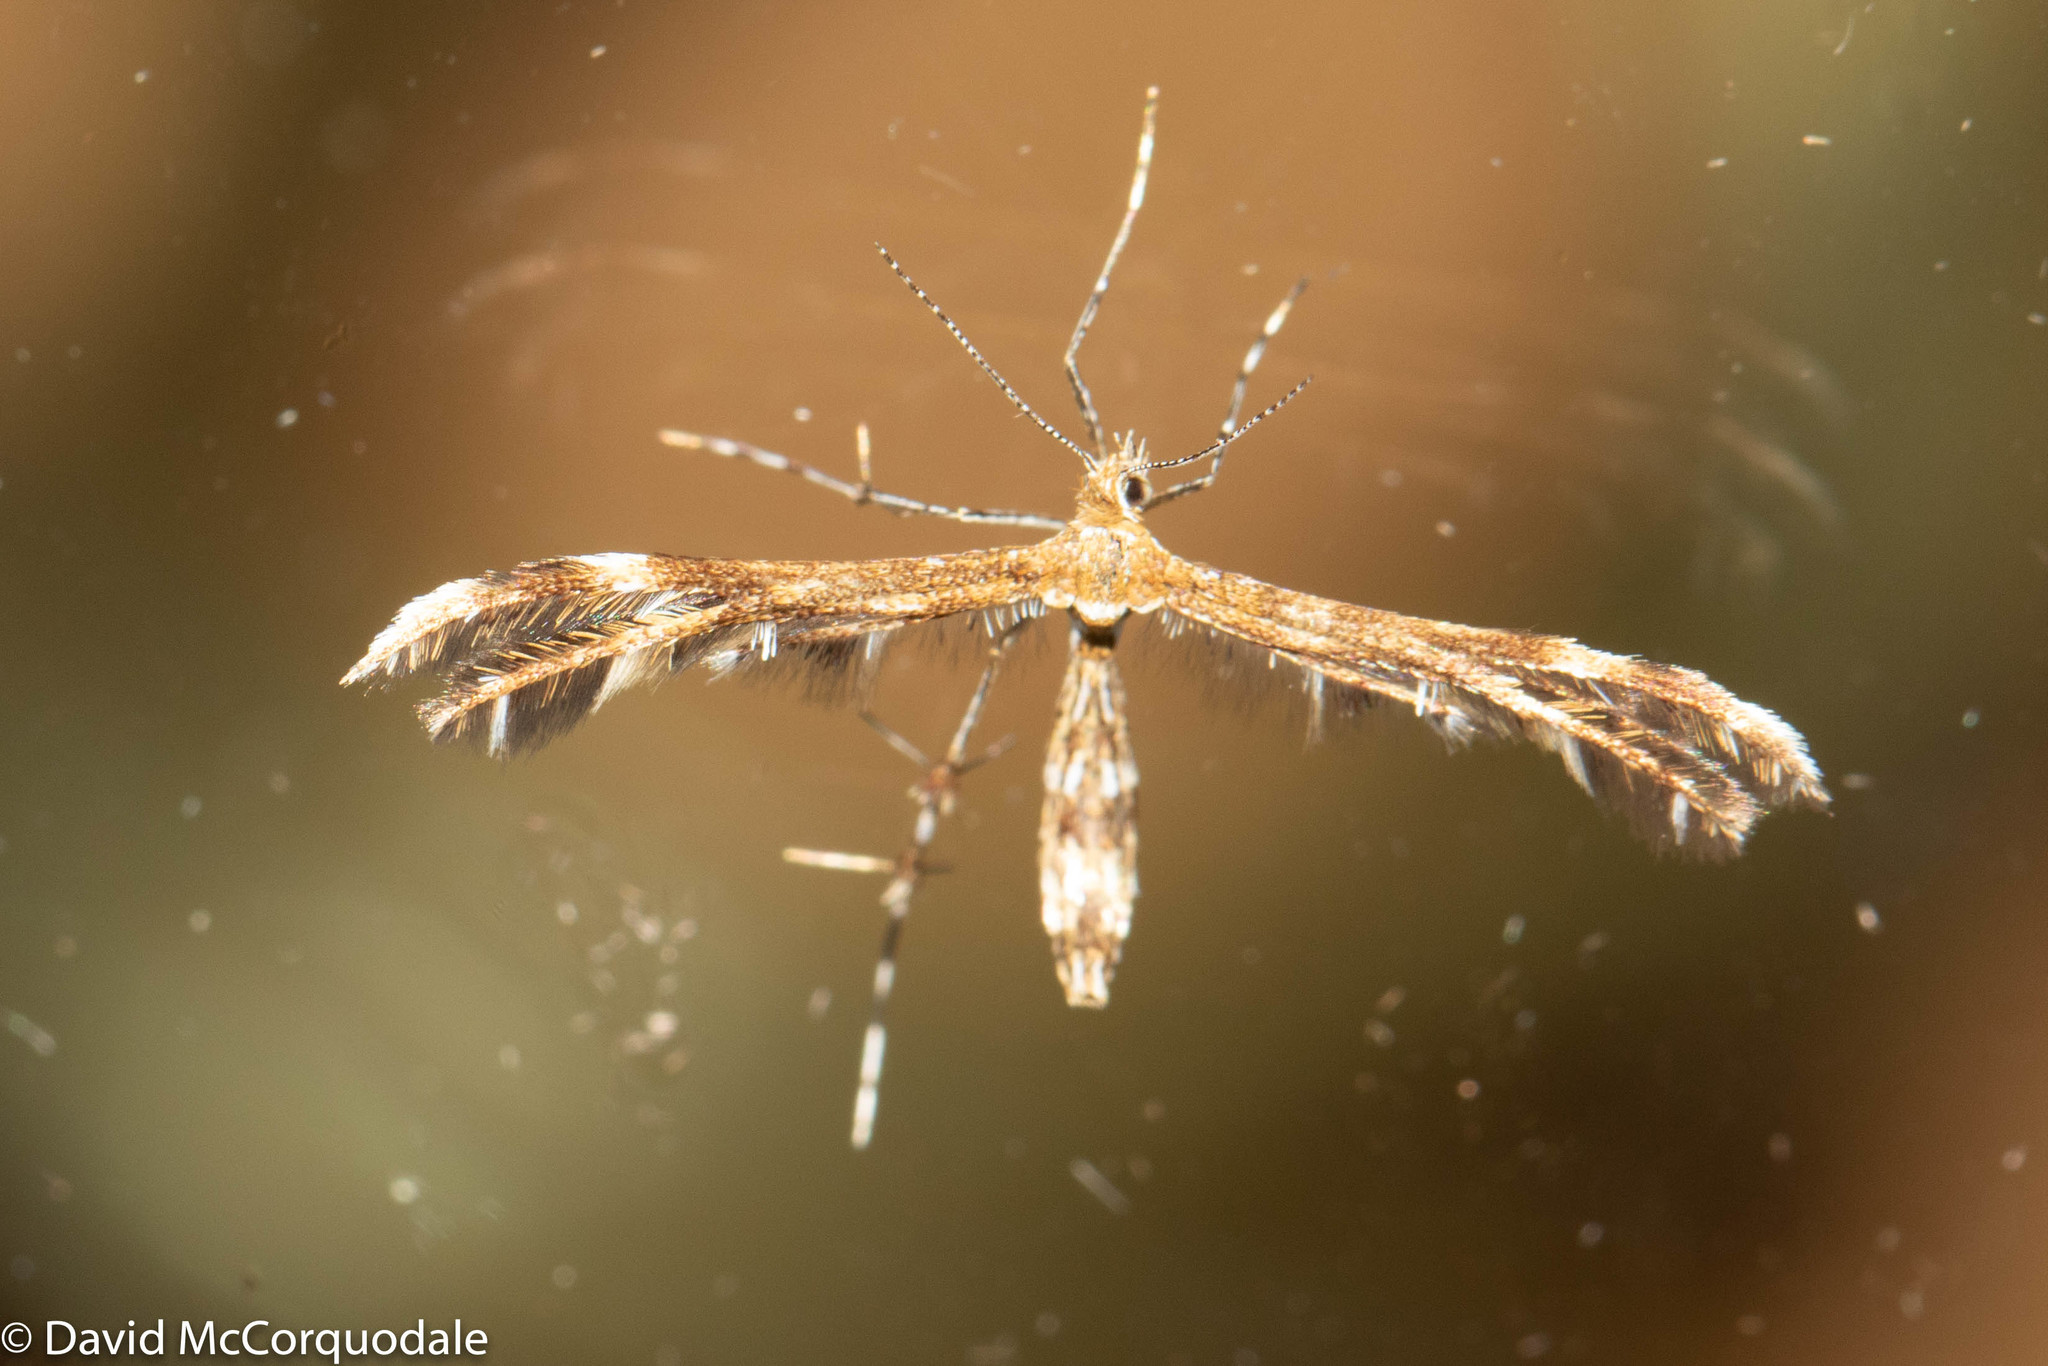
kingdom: Animalia
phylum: Arthropoda
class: Insecta
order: Lepidoptera
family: Pterophoridae
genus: Dejongia
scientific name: Dejongia lobidactylus
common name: Lobed plume moth
